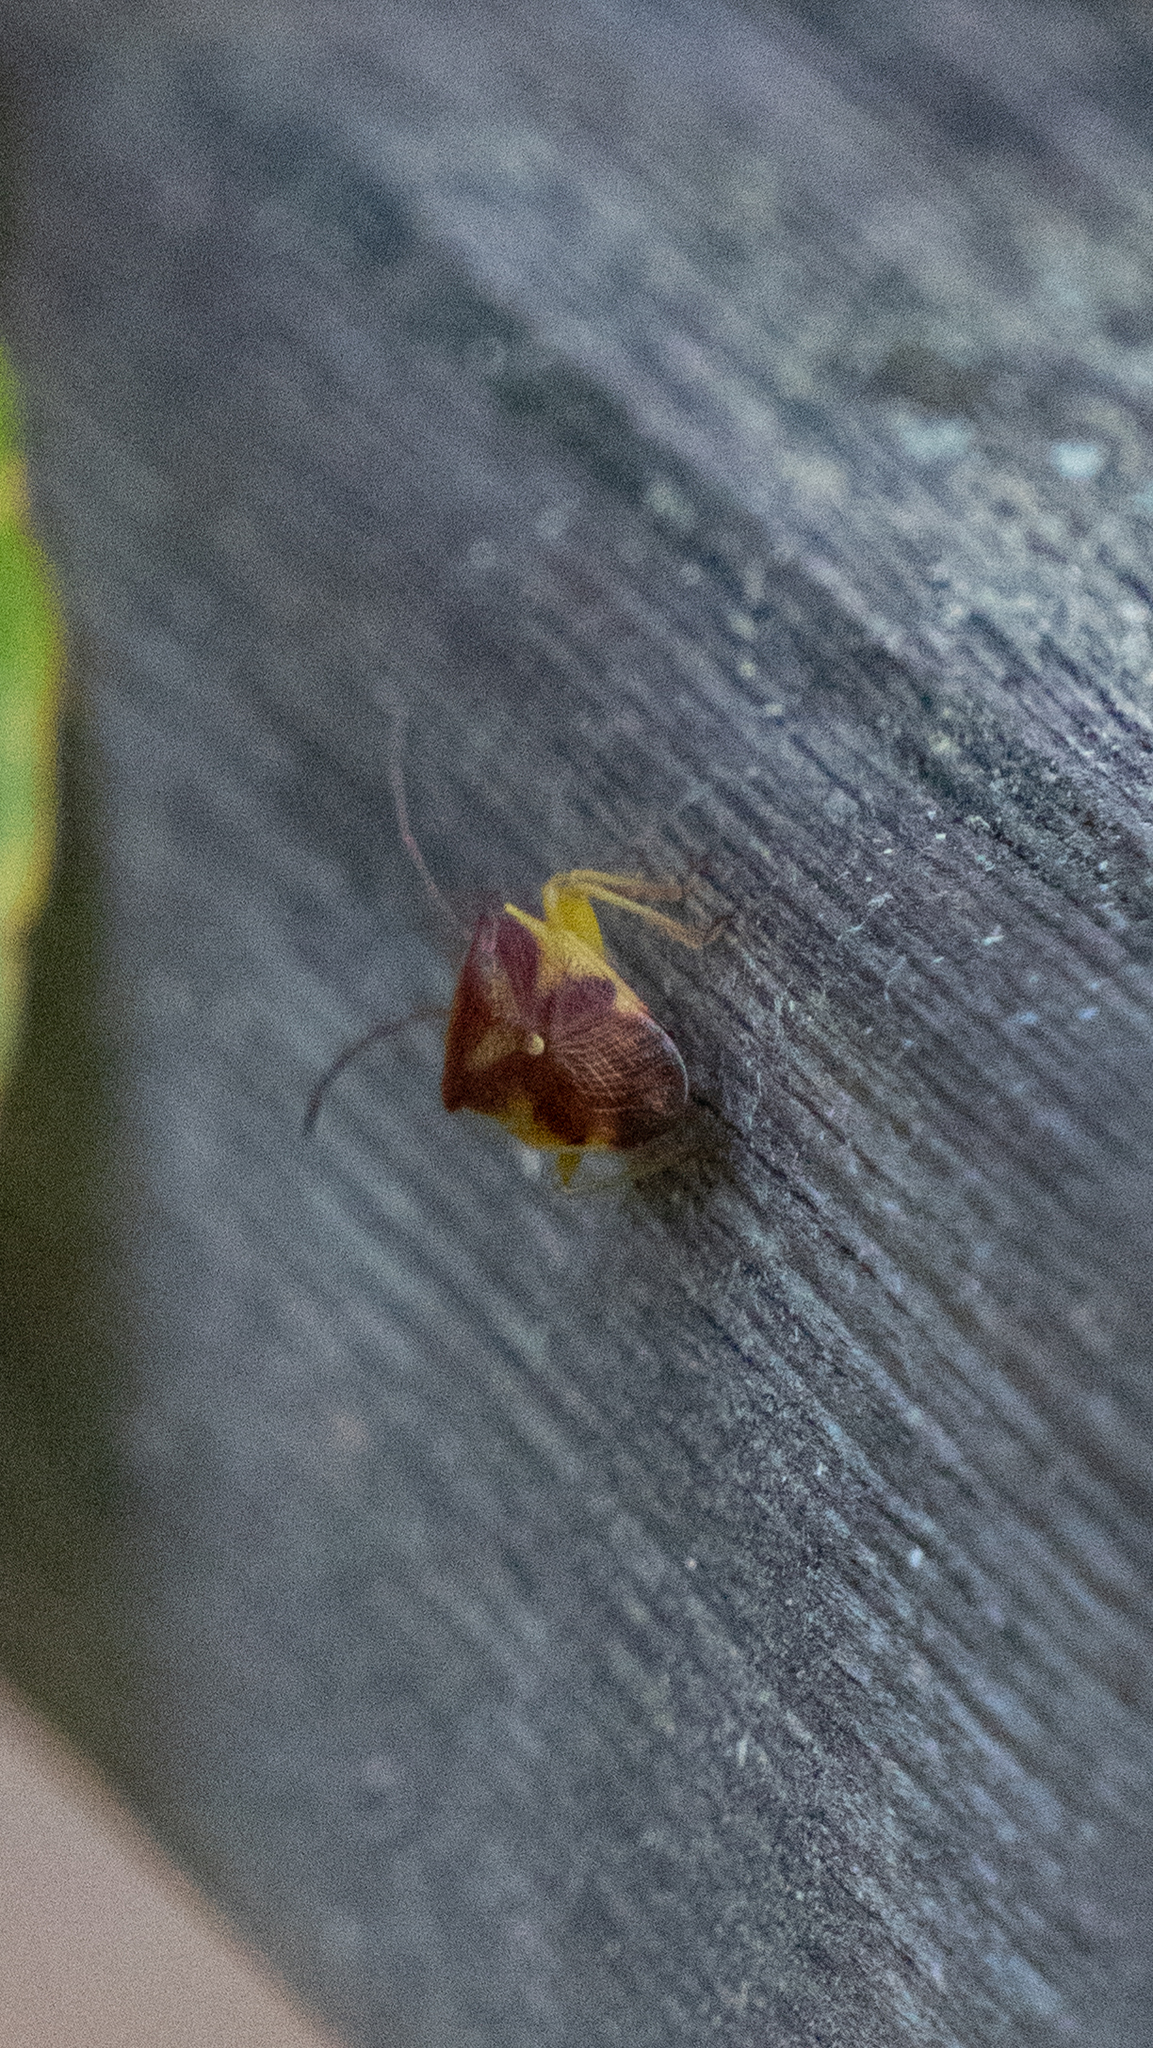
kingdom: Animalia
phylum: Arthropoda
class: Insecta
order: Hemiptera
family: Acanthosomatidae
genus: Elasmostethus
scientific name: Elasmostethus cruciatus
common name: Red-cross shield bug
